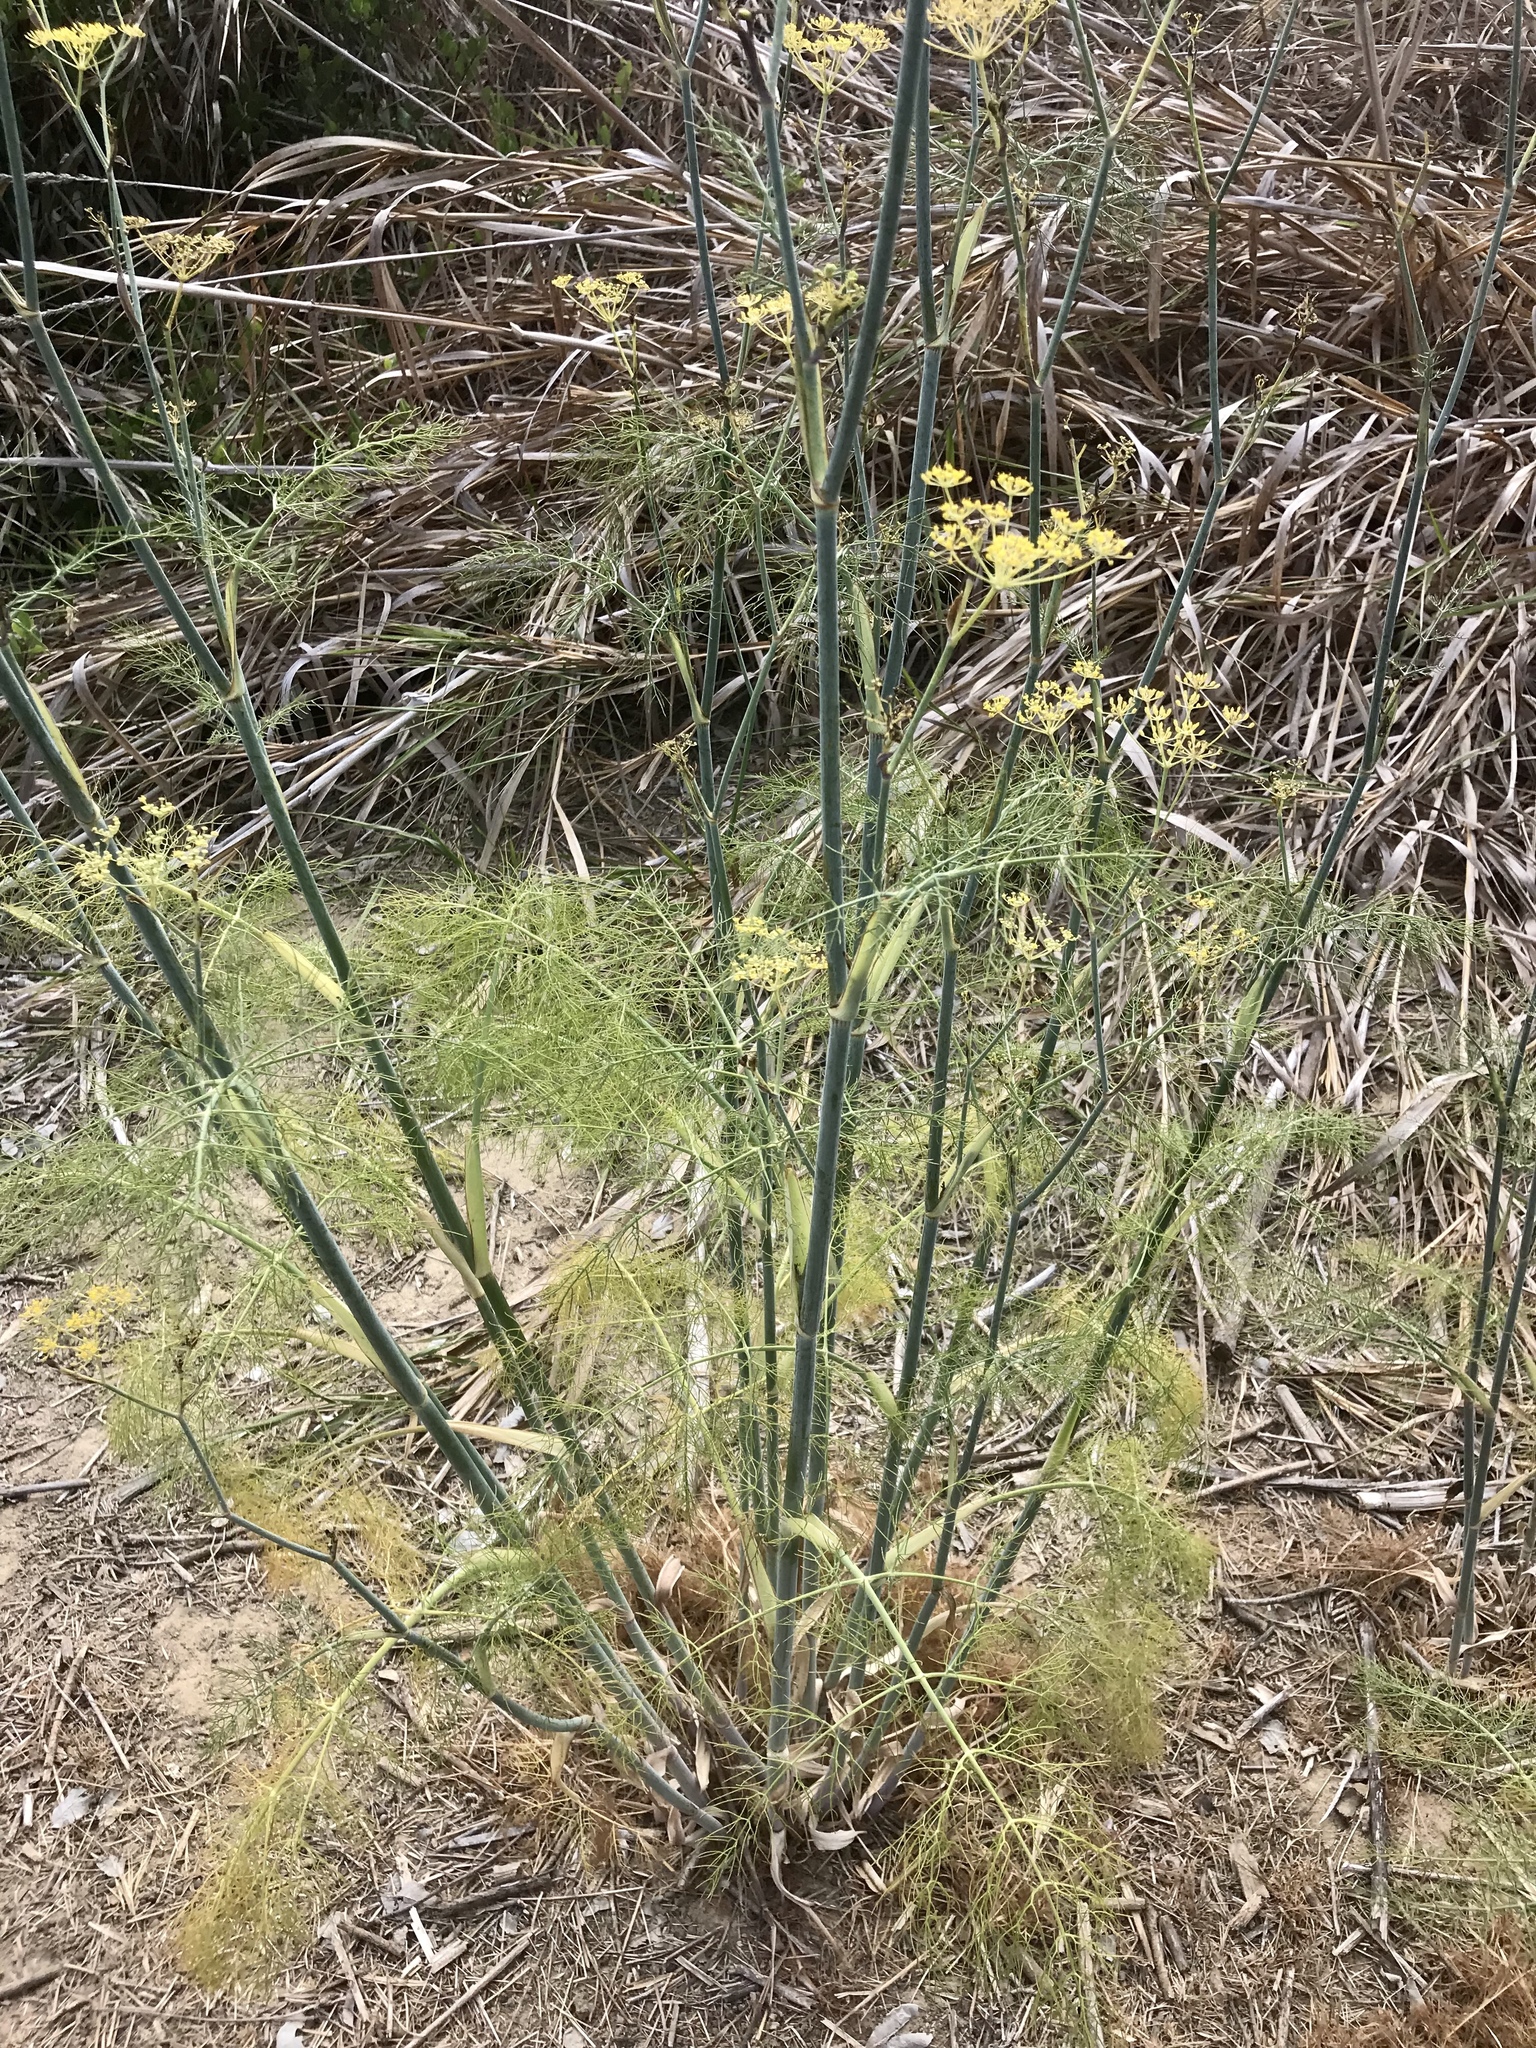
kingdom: Plantae
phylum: Tracheophyta
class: Magnoliopsida
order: Apiales
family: Apiaceae
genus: Foeniculum
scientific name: Foeniculum vulgare
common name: Fennel
